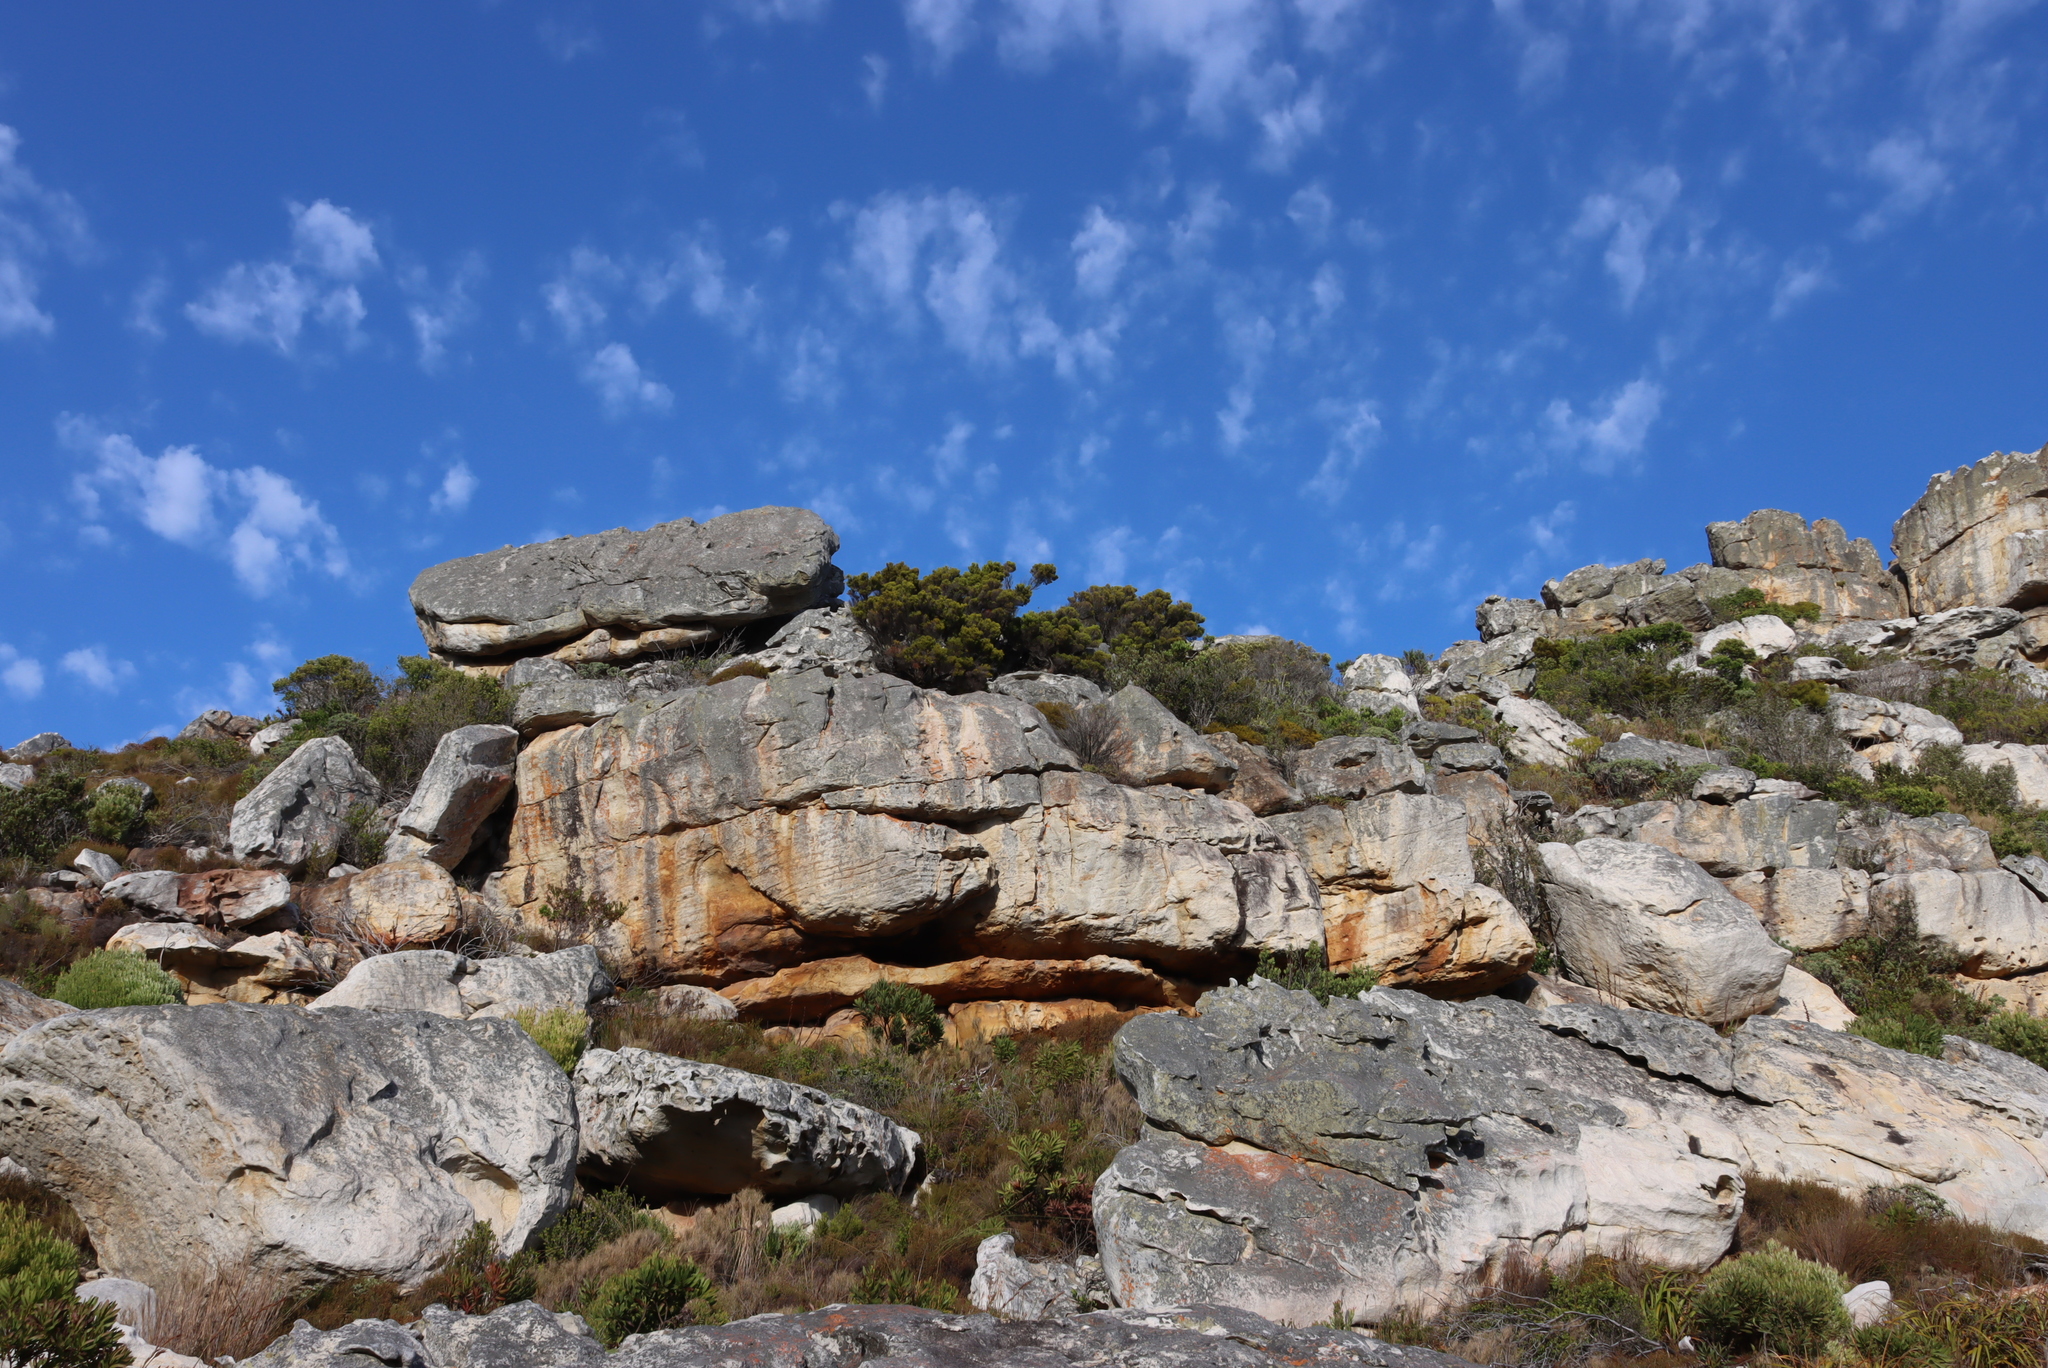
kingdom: Plantae
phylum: Tracheophyta
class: Magnoliopsida
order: Ericales
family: Ericaceae
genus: Erica
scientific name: Erica tristis
